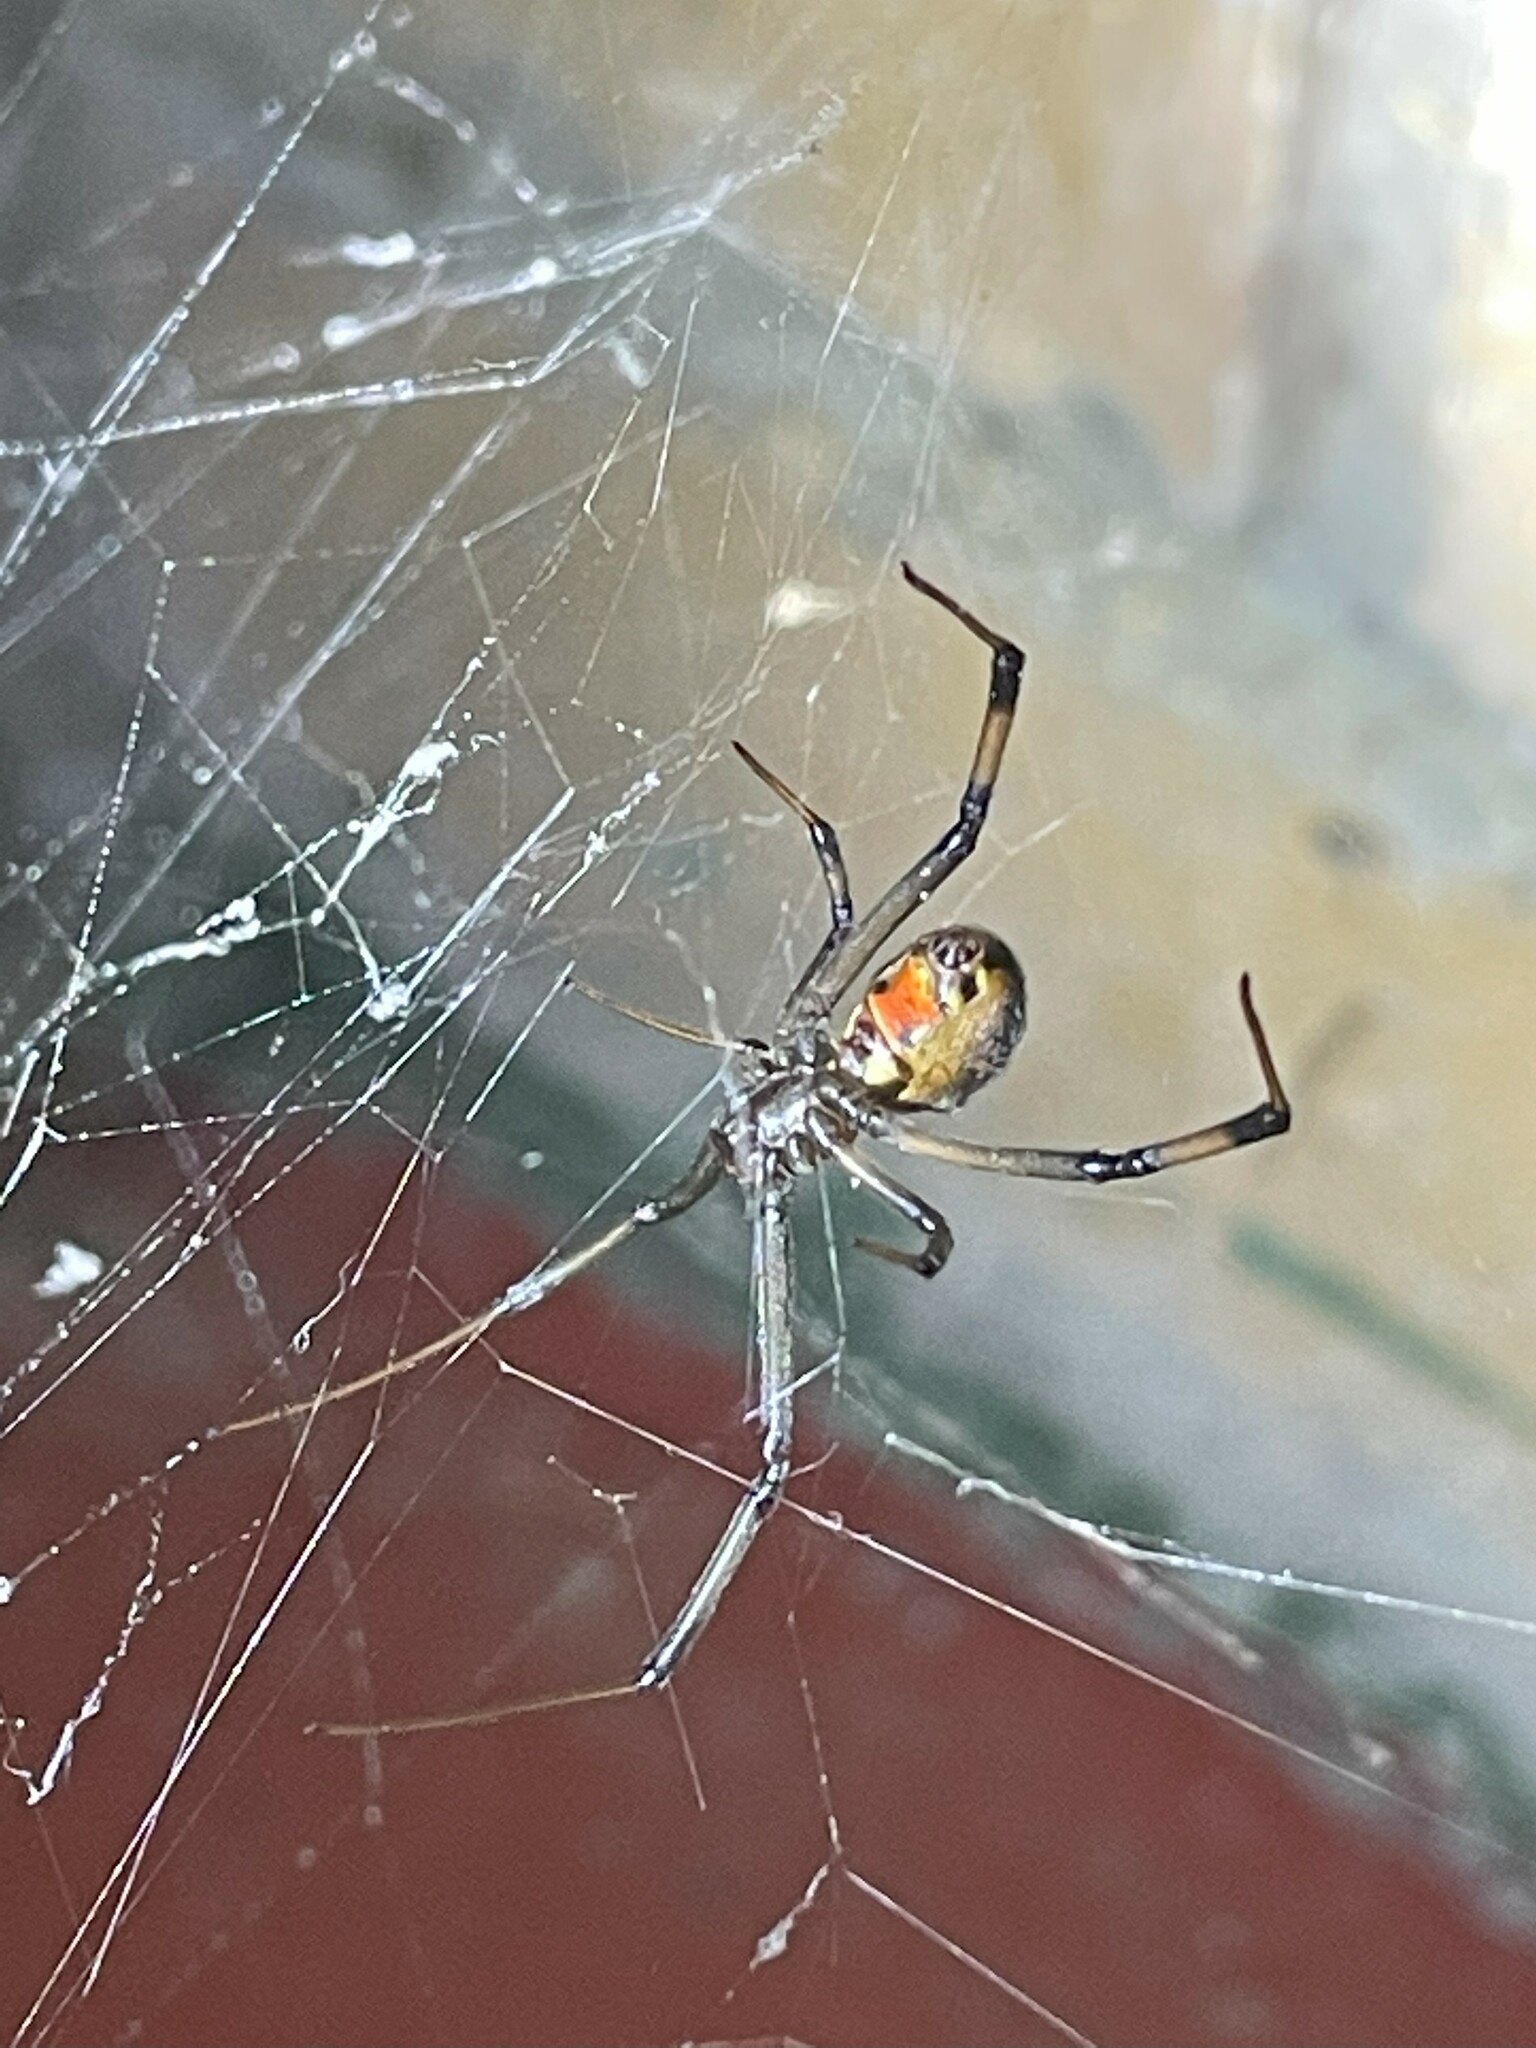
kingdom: Animalia
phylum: Arthropoda
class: Arachnida
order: Araneae
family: Theridiidae
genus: Latrodectus
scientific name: Latrodectus geometricus
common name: Brown widow spider
